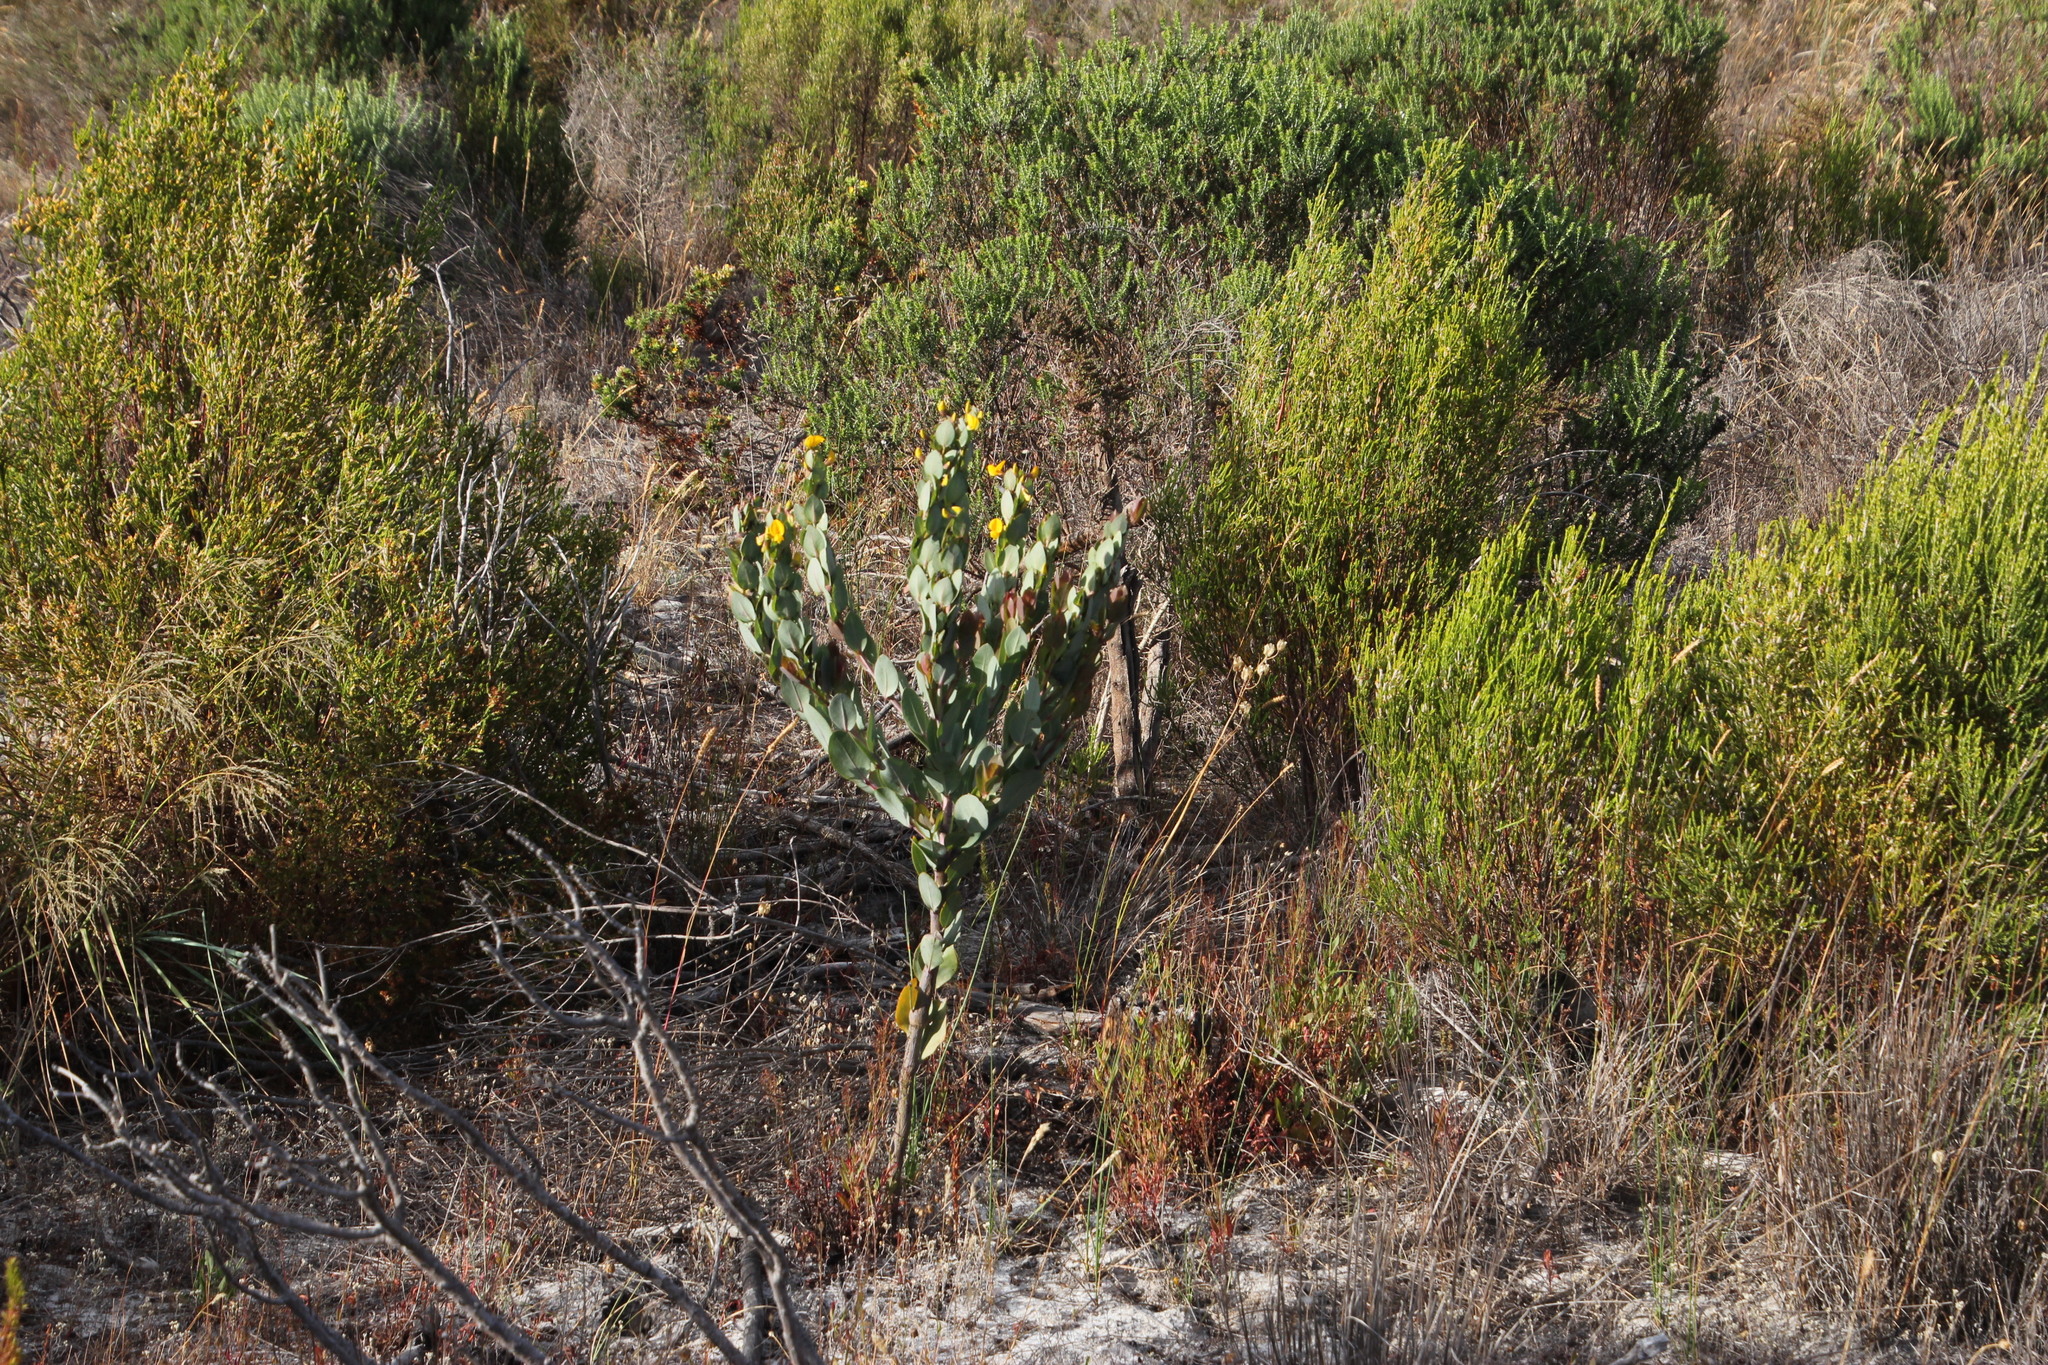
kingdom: Plantae
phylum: Tracheophyta
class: Magnoliopsida
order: Fabales
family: Fabaceae
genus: Rafnia
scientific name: Rafnia triflora
